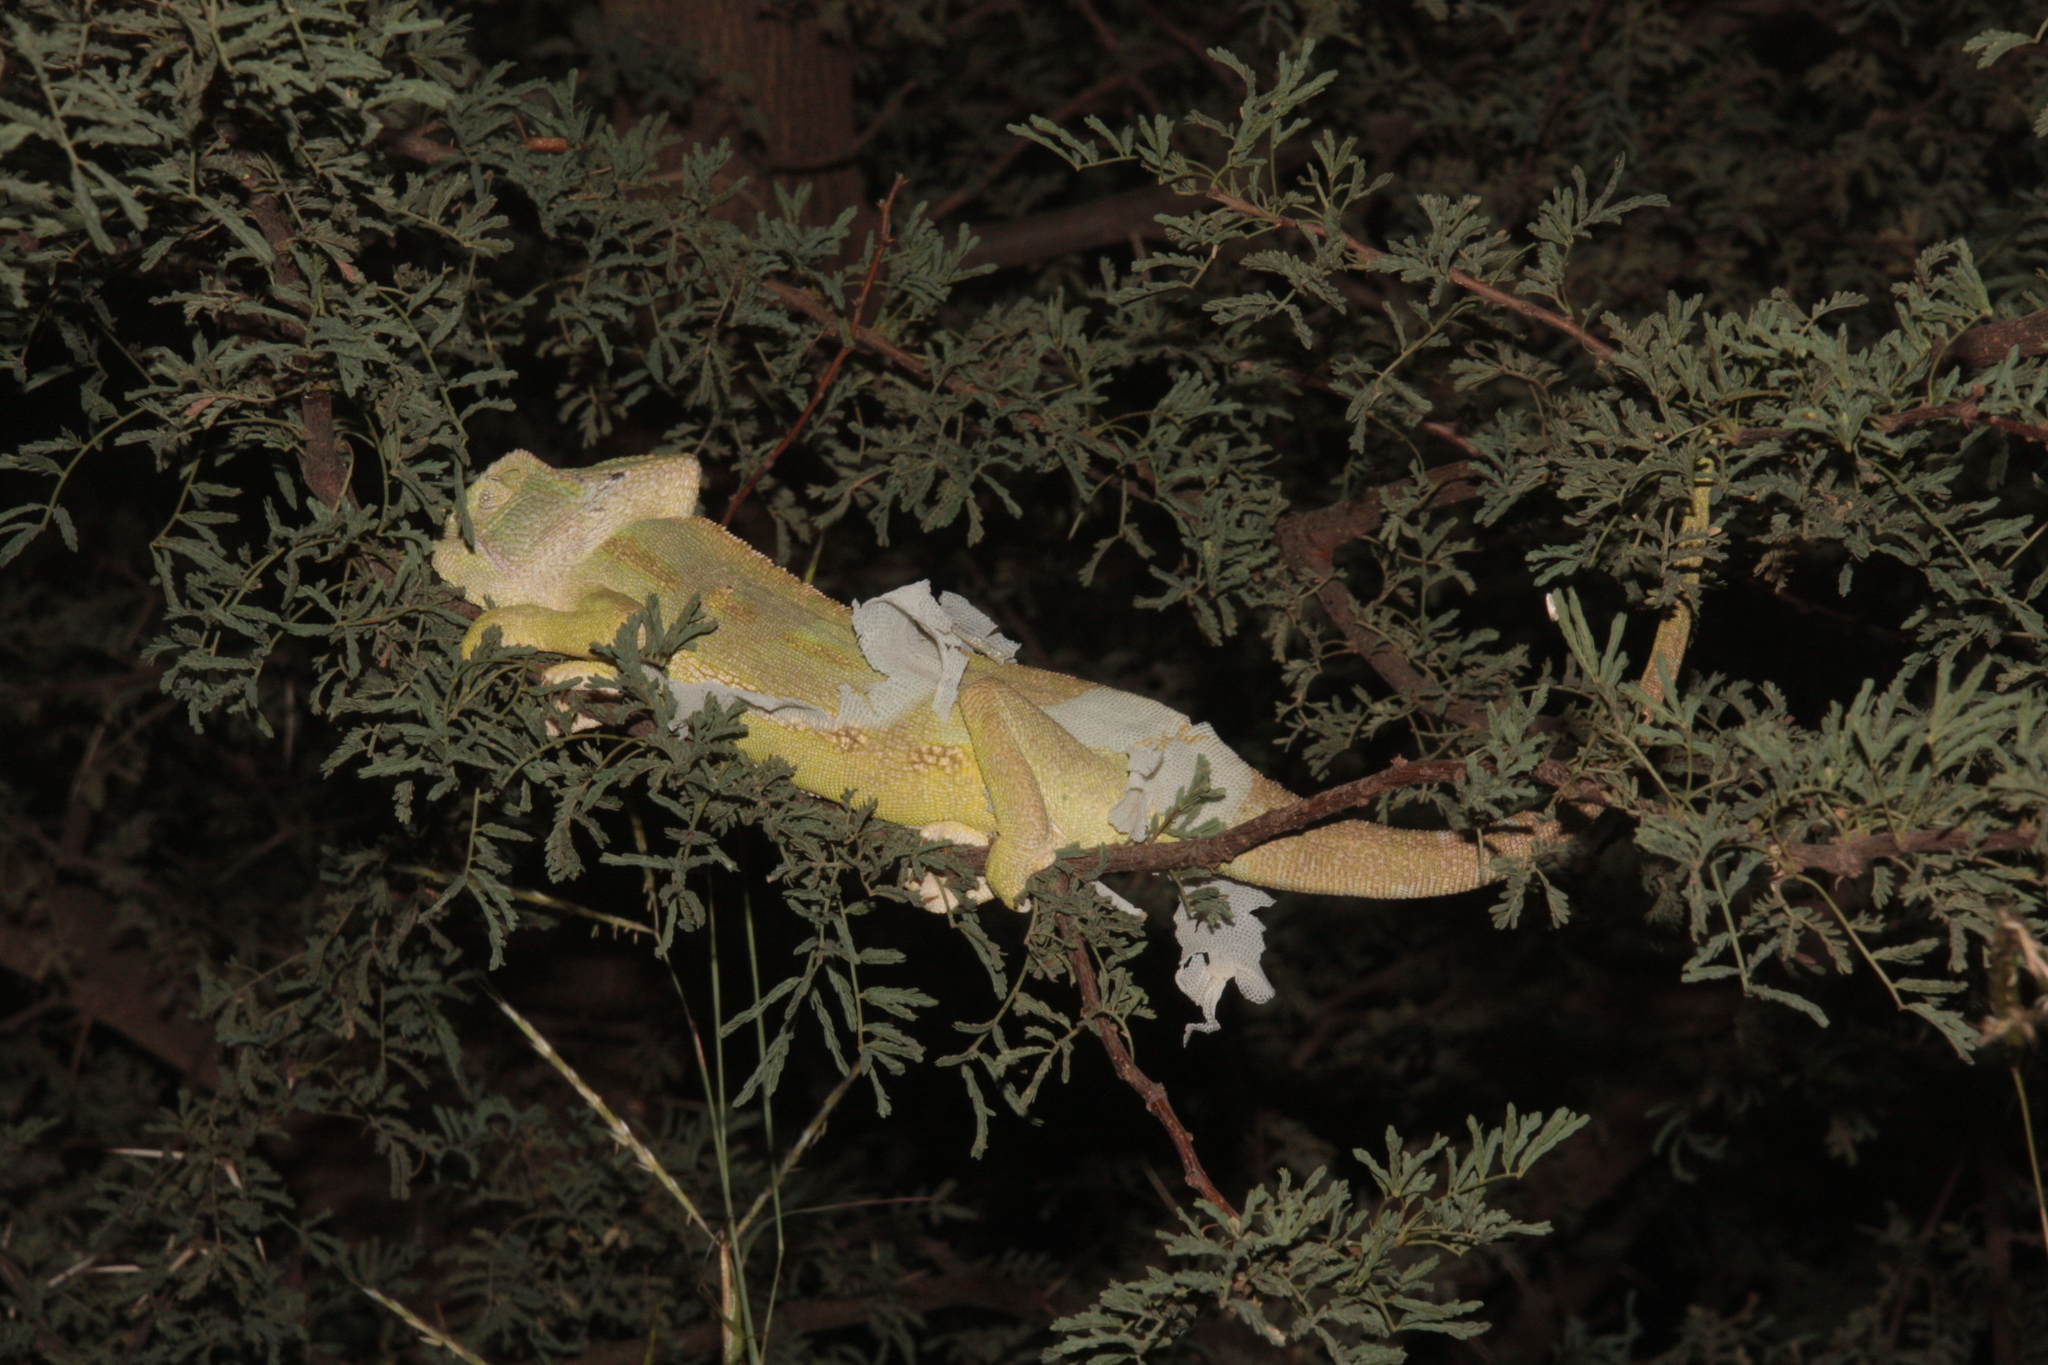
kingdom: Animalia
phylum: Chordata
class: Squamata
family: Chamaeleonidae
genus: Chamaeleo
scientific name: Chamaeleo africanus
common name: African chameleon
